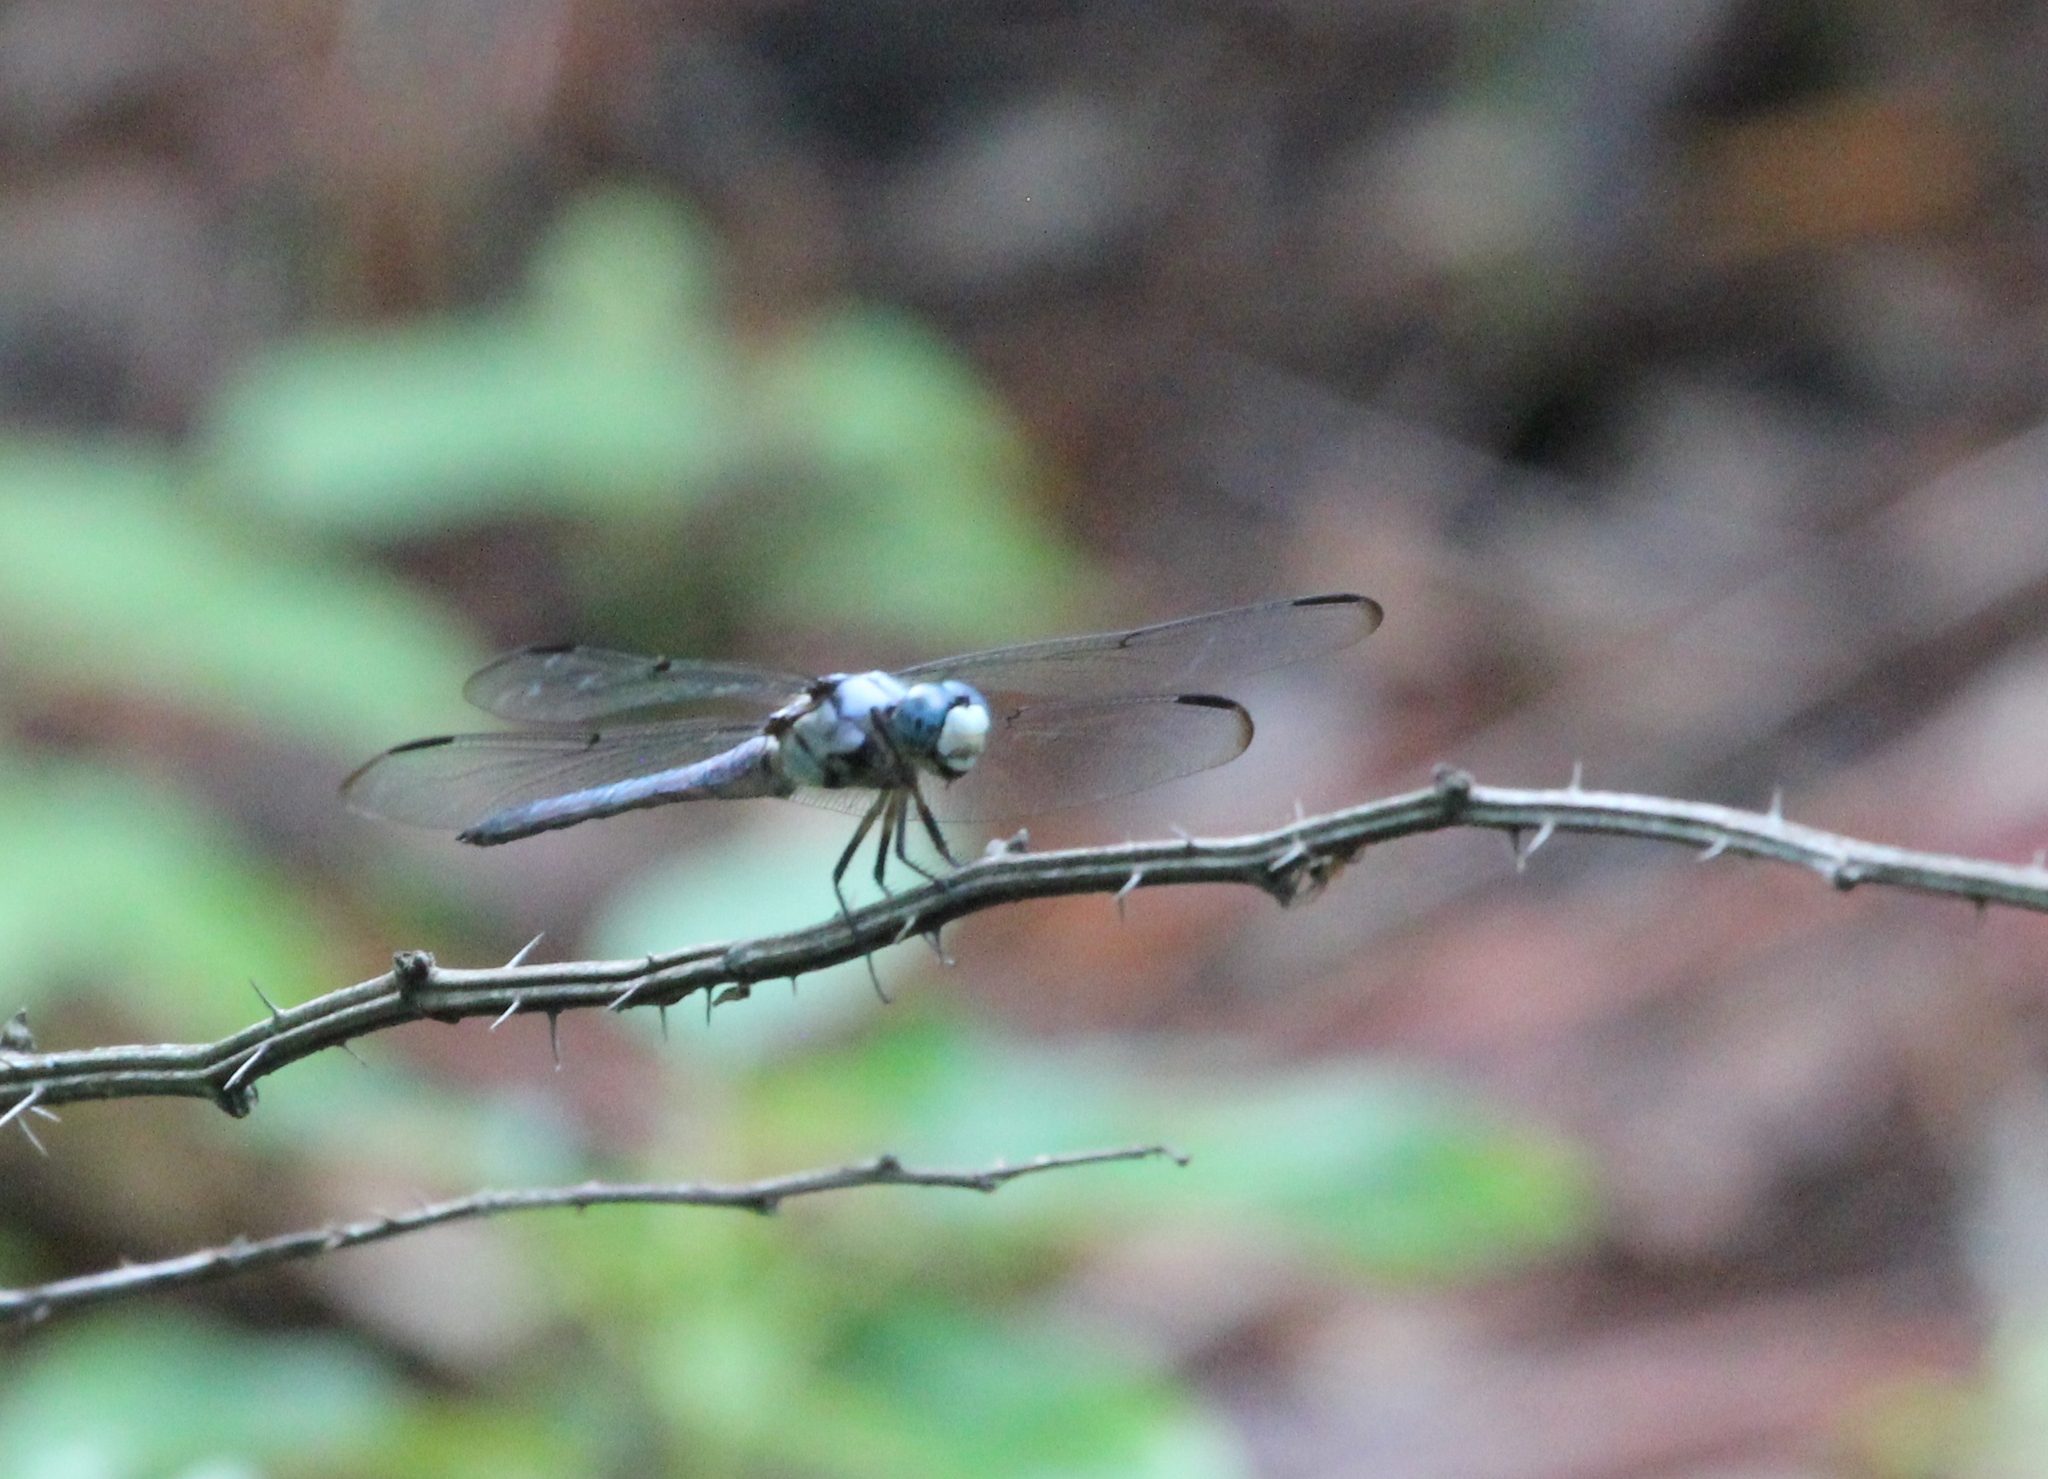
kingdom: Animalia
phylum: Arthropoda
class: Insecta
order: Odonata
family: Libellulidae
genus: Libellula
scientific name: Libellula vibrans
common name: Great blue skimmer
